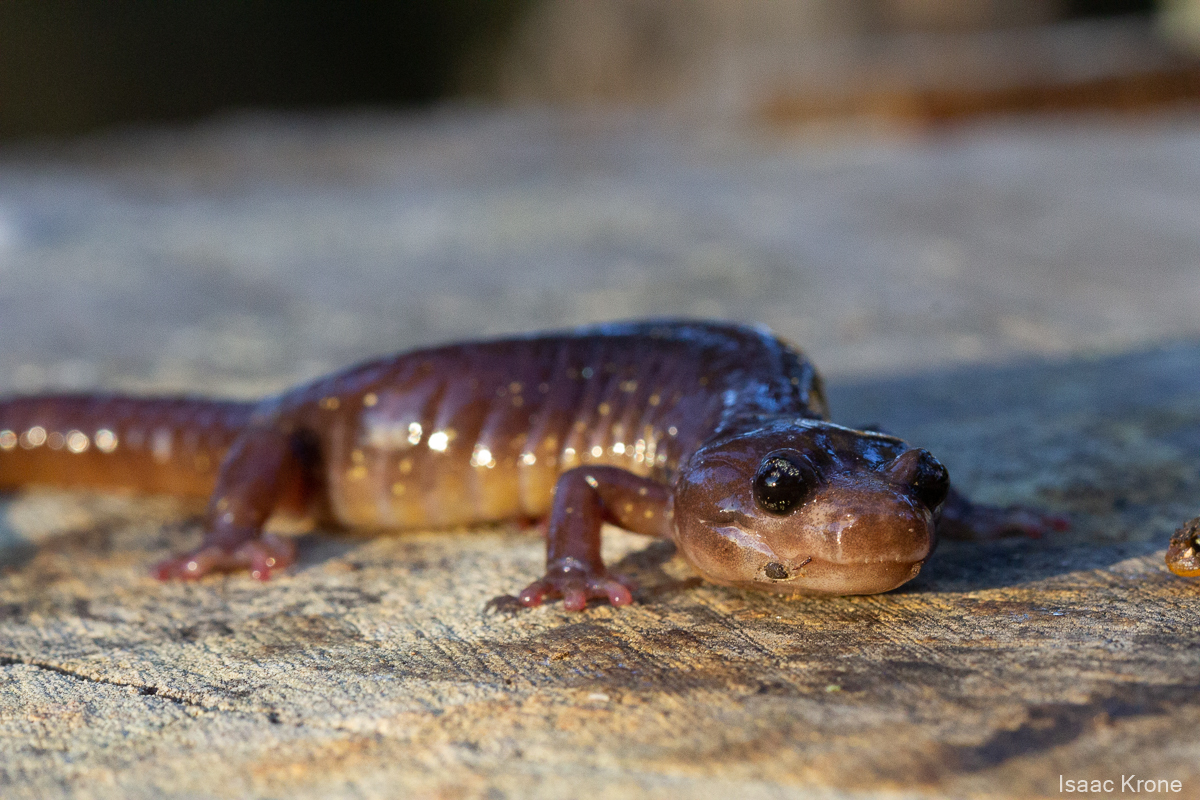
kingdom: Animalia
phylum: Chordata
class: Amphibia
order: Caudata
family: Plethodontidae
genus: Aneides
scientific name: Aneides lugubris
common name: Arboreal salamander
